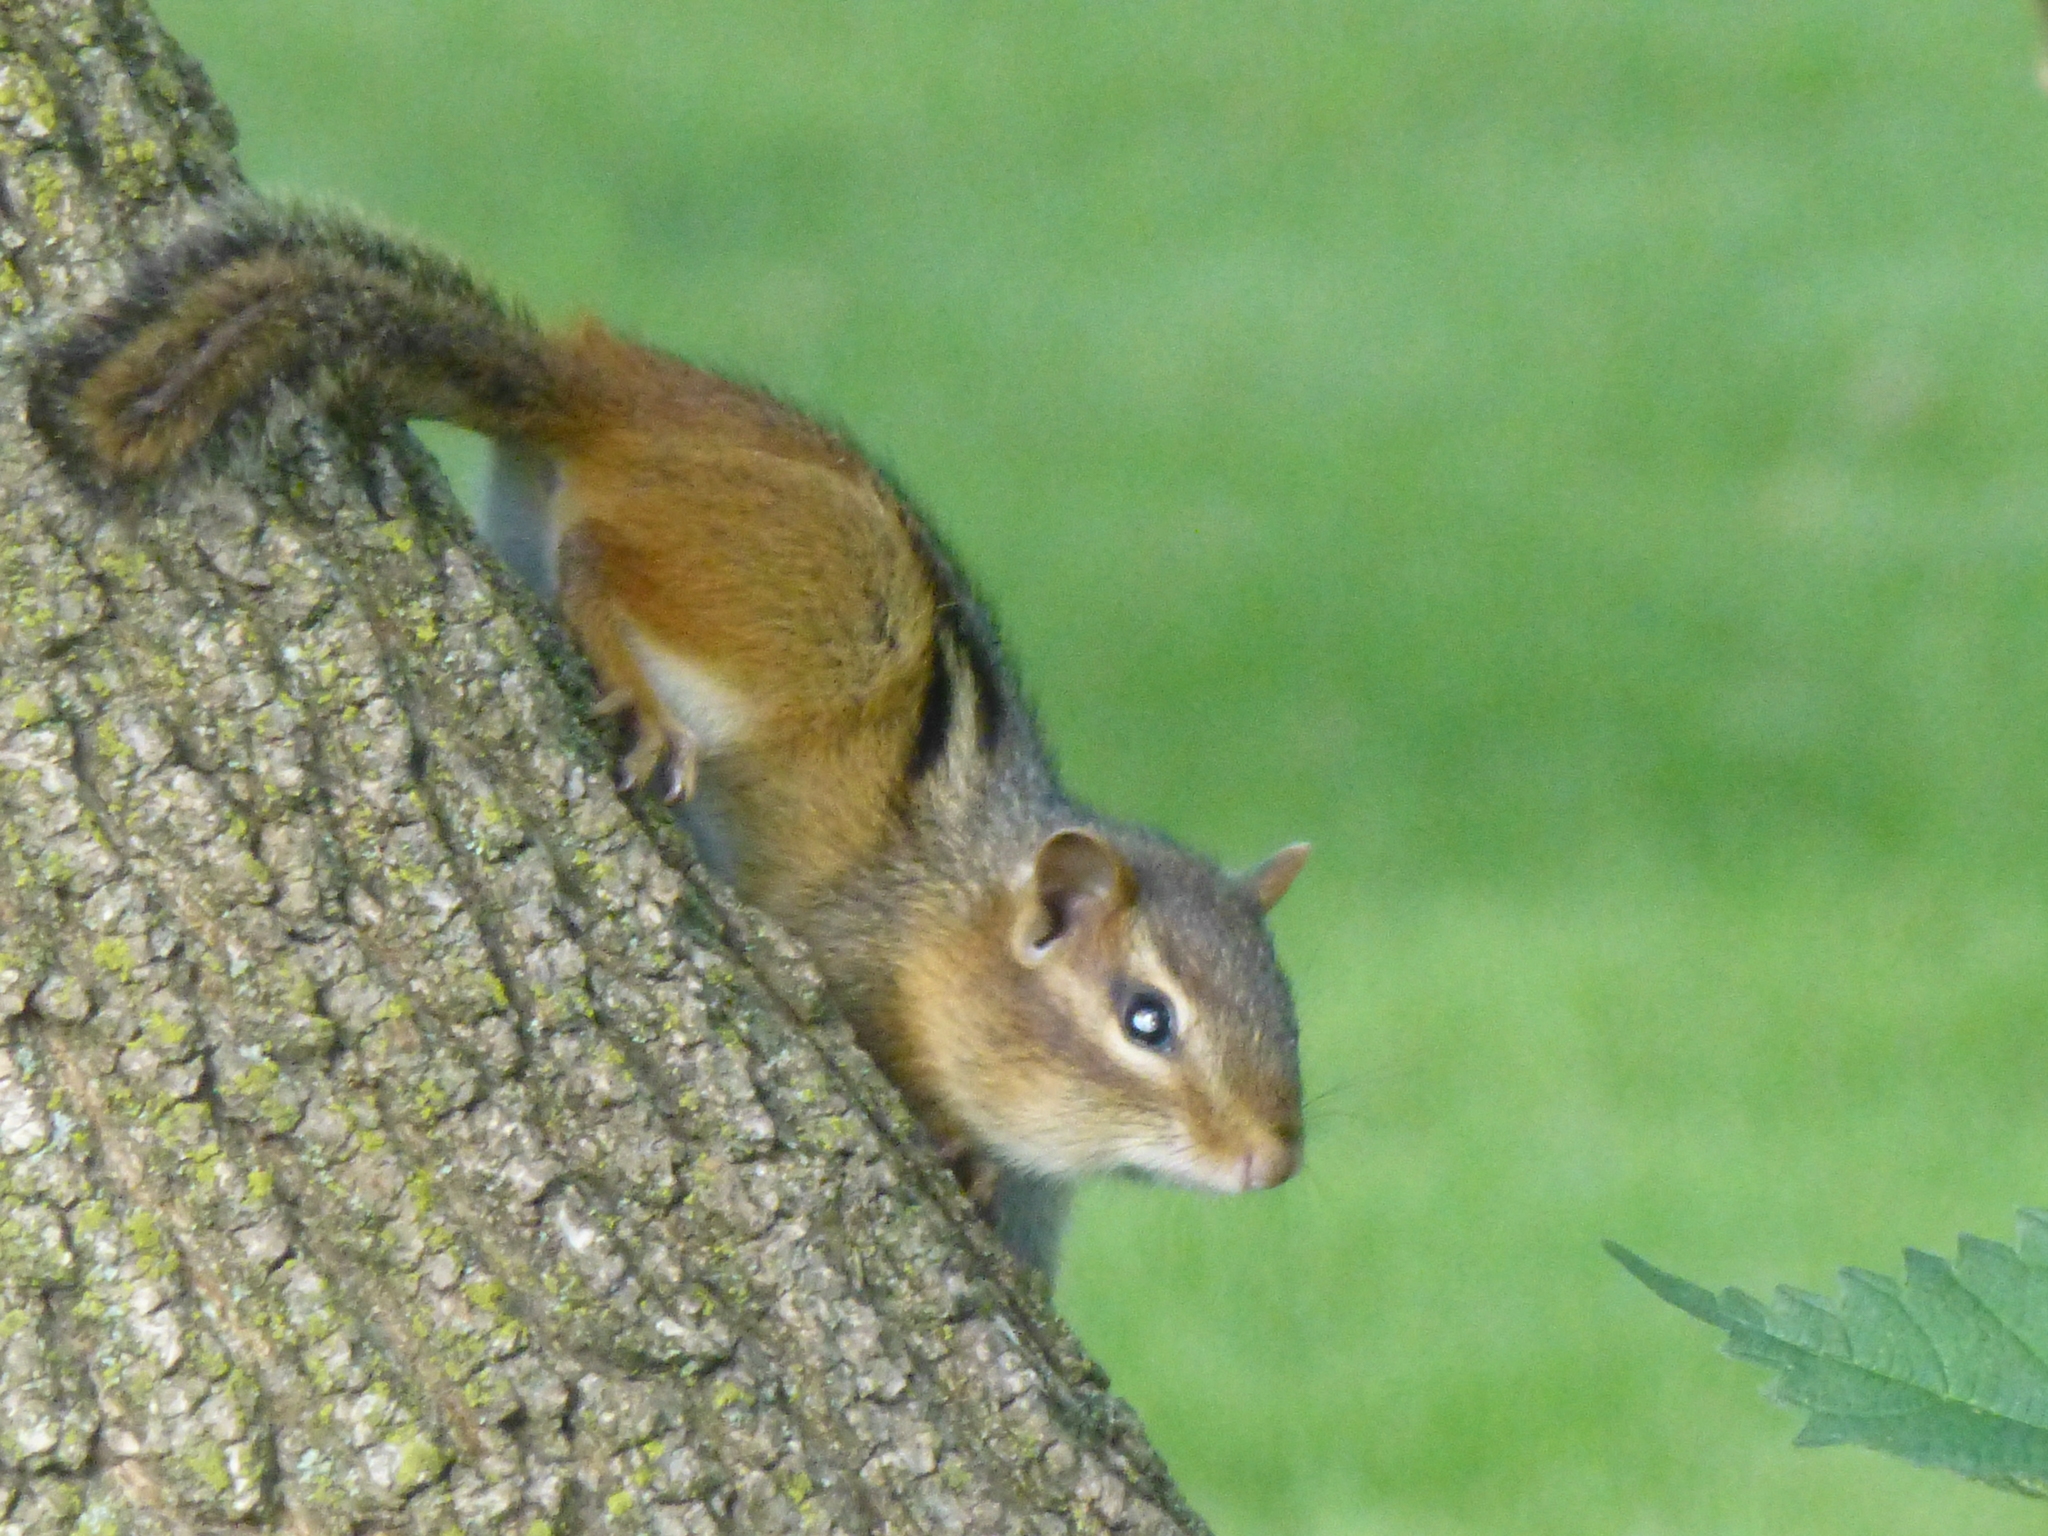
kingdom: Animalia
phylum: Chordata
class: Mammalia
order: Rodentia
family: Sciuridae
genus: Tamias
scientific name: Tamias striatus
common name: Eastern chipmunk
